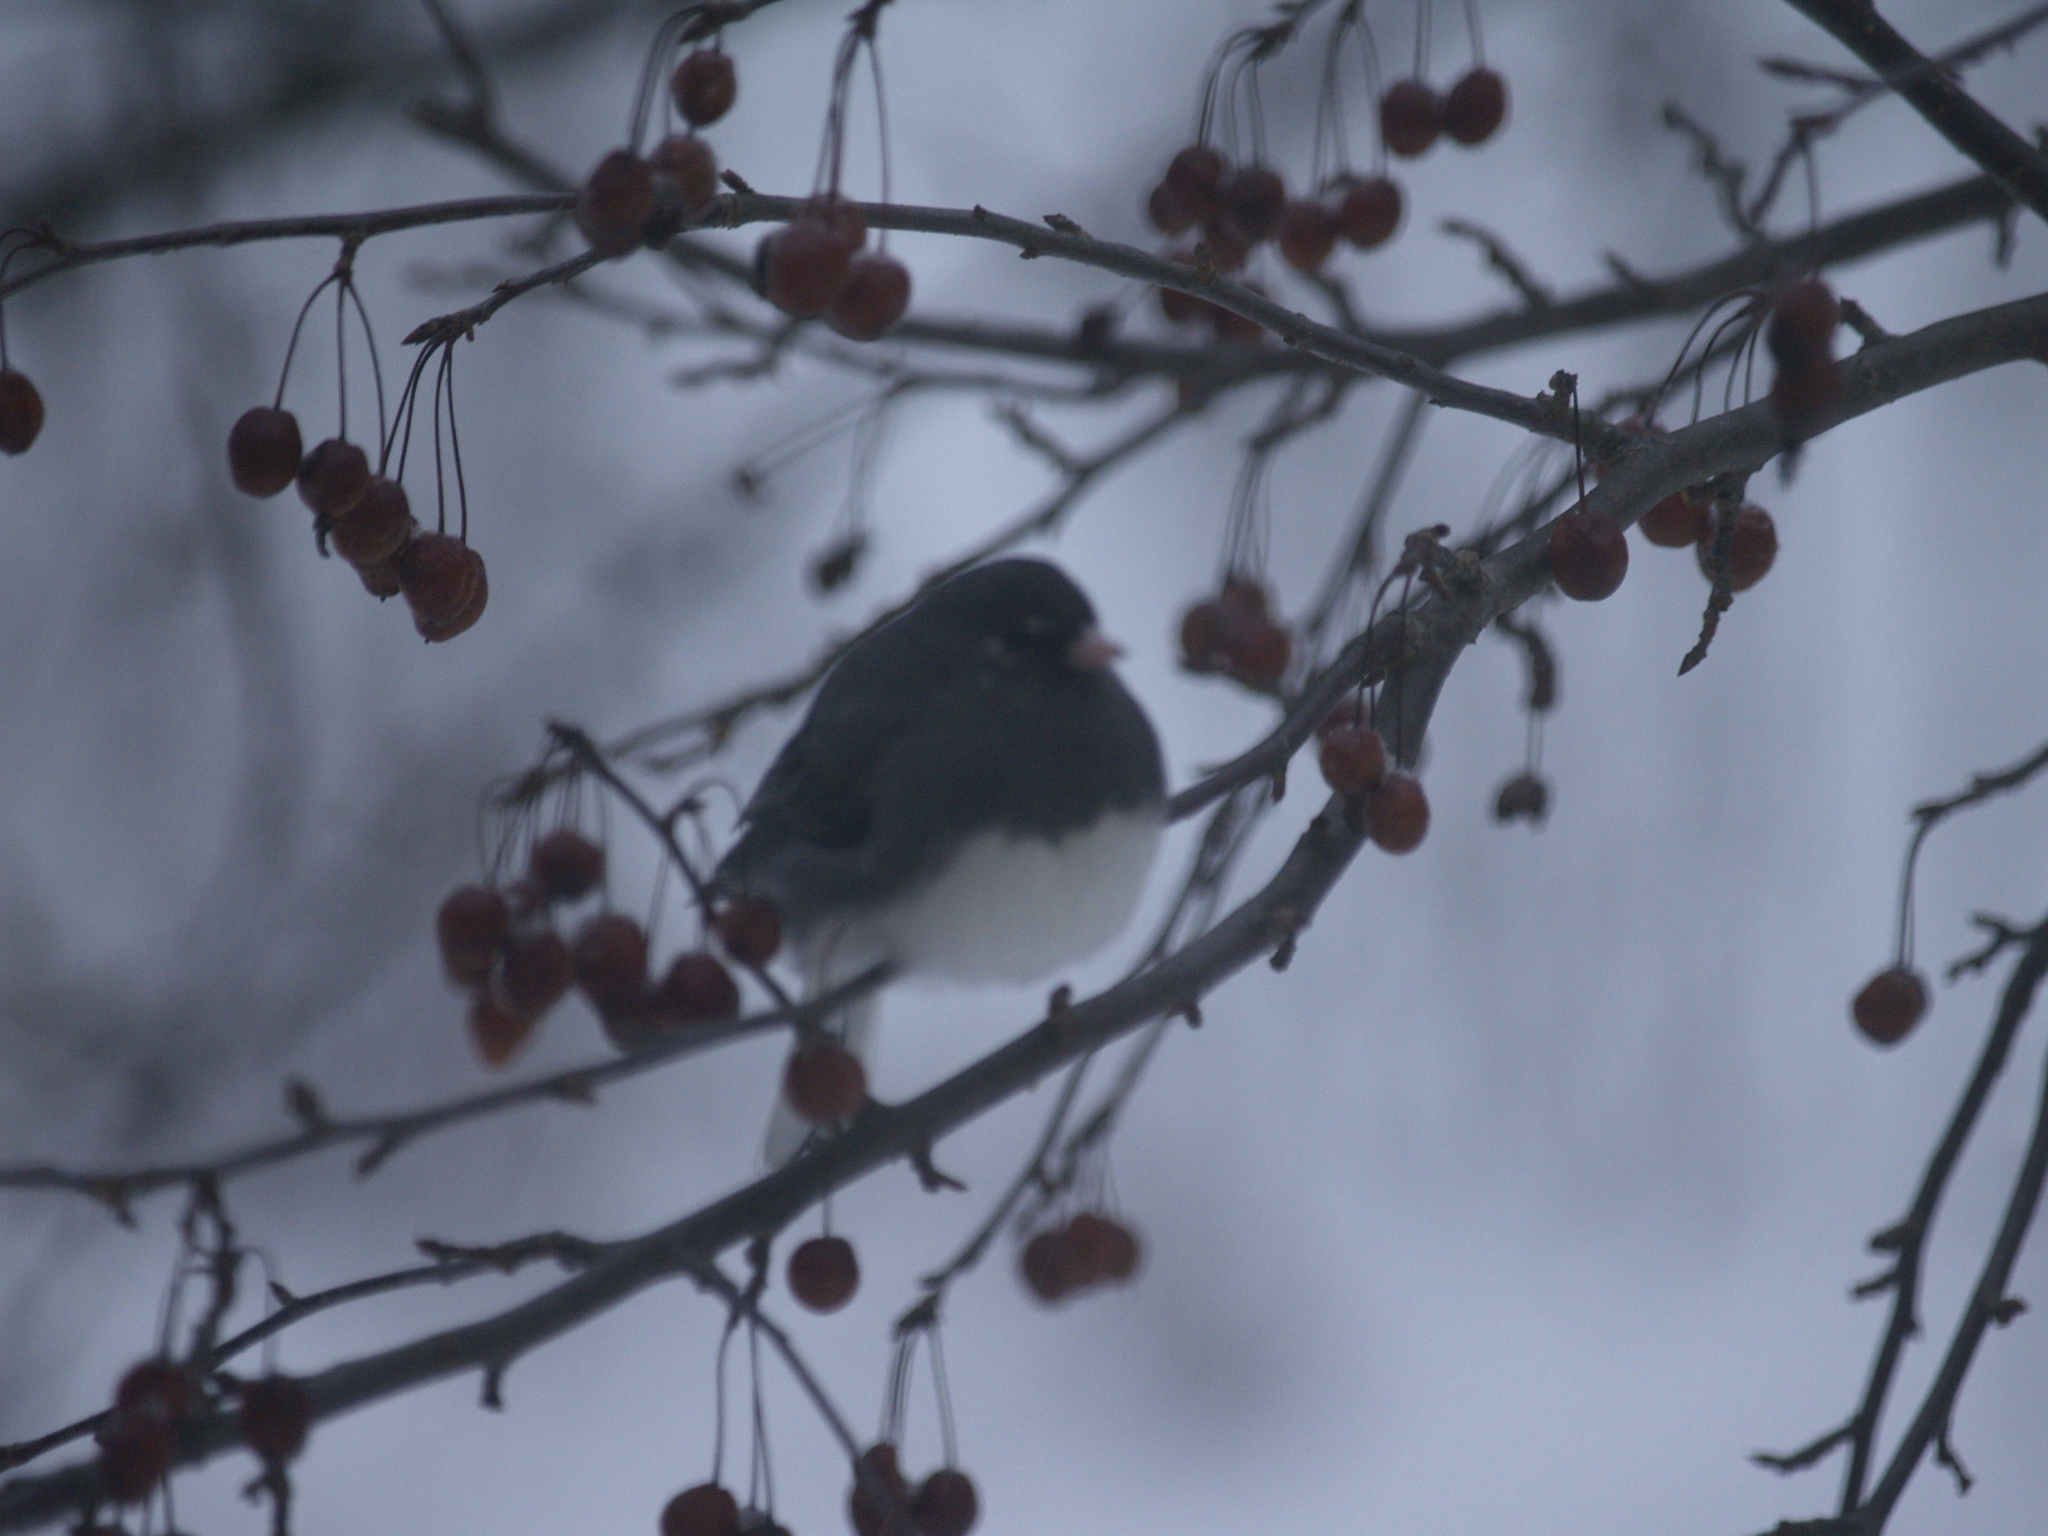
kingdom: Animalia
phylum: Chordata
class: Aves
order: Passeriformes
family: Passerellidae
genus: Junco
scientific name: Junco hyemalis
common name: Dark-eyed junco
